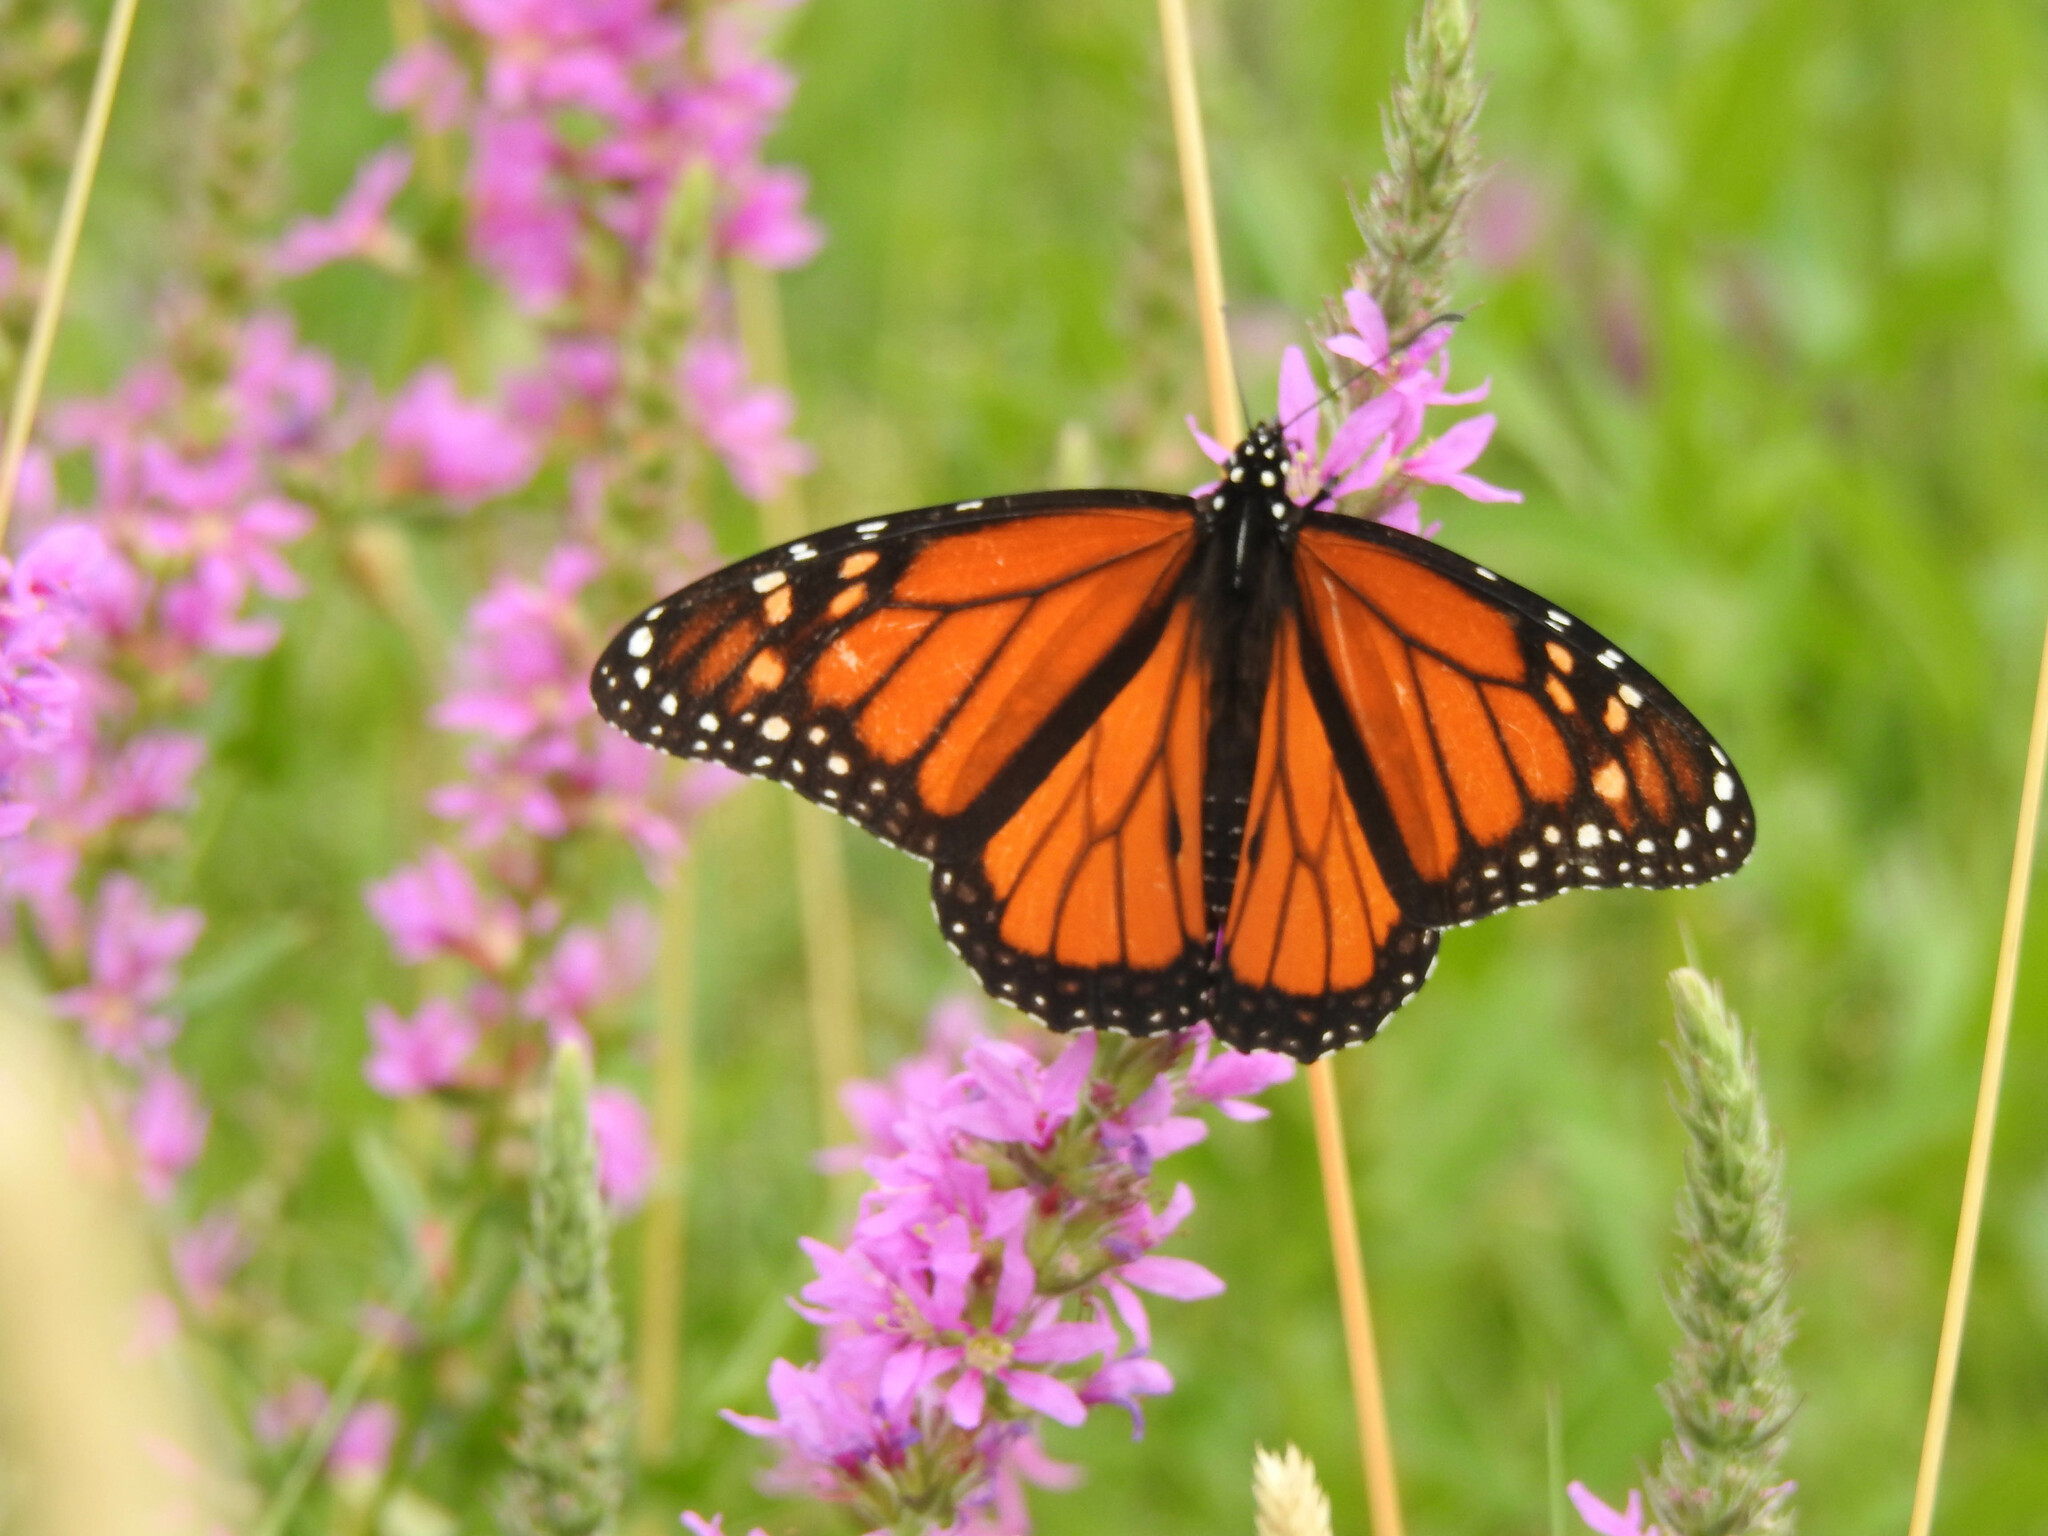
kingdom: Animalia
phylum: Arthropoda
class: Insecta
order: Lepidoptera
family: Nymphalidae
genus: Danaus
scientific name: Danaus plexippus
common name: Monarch
